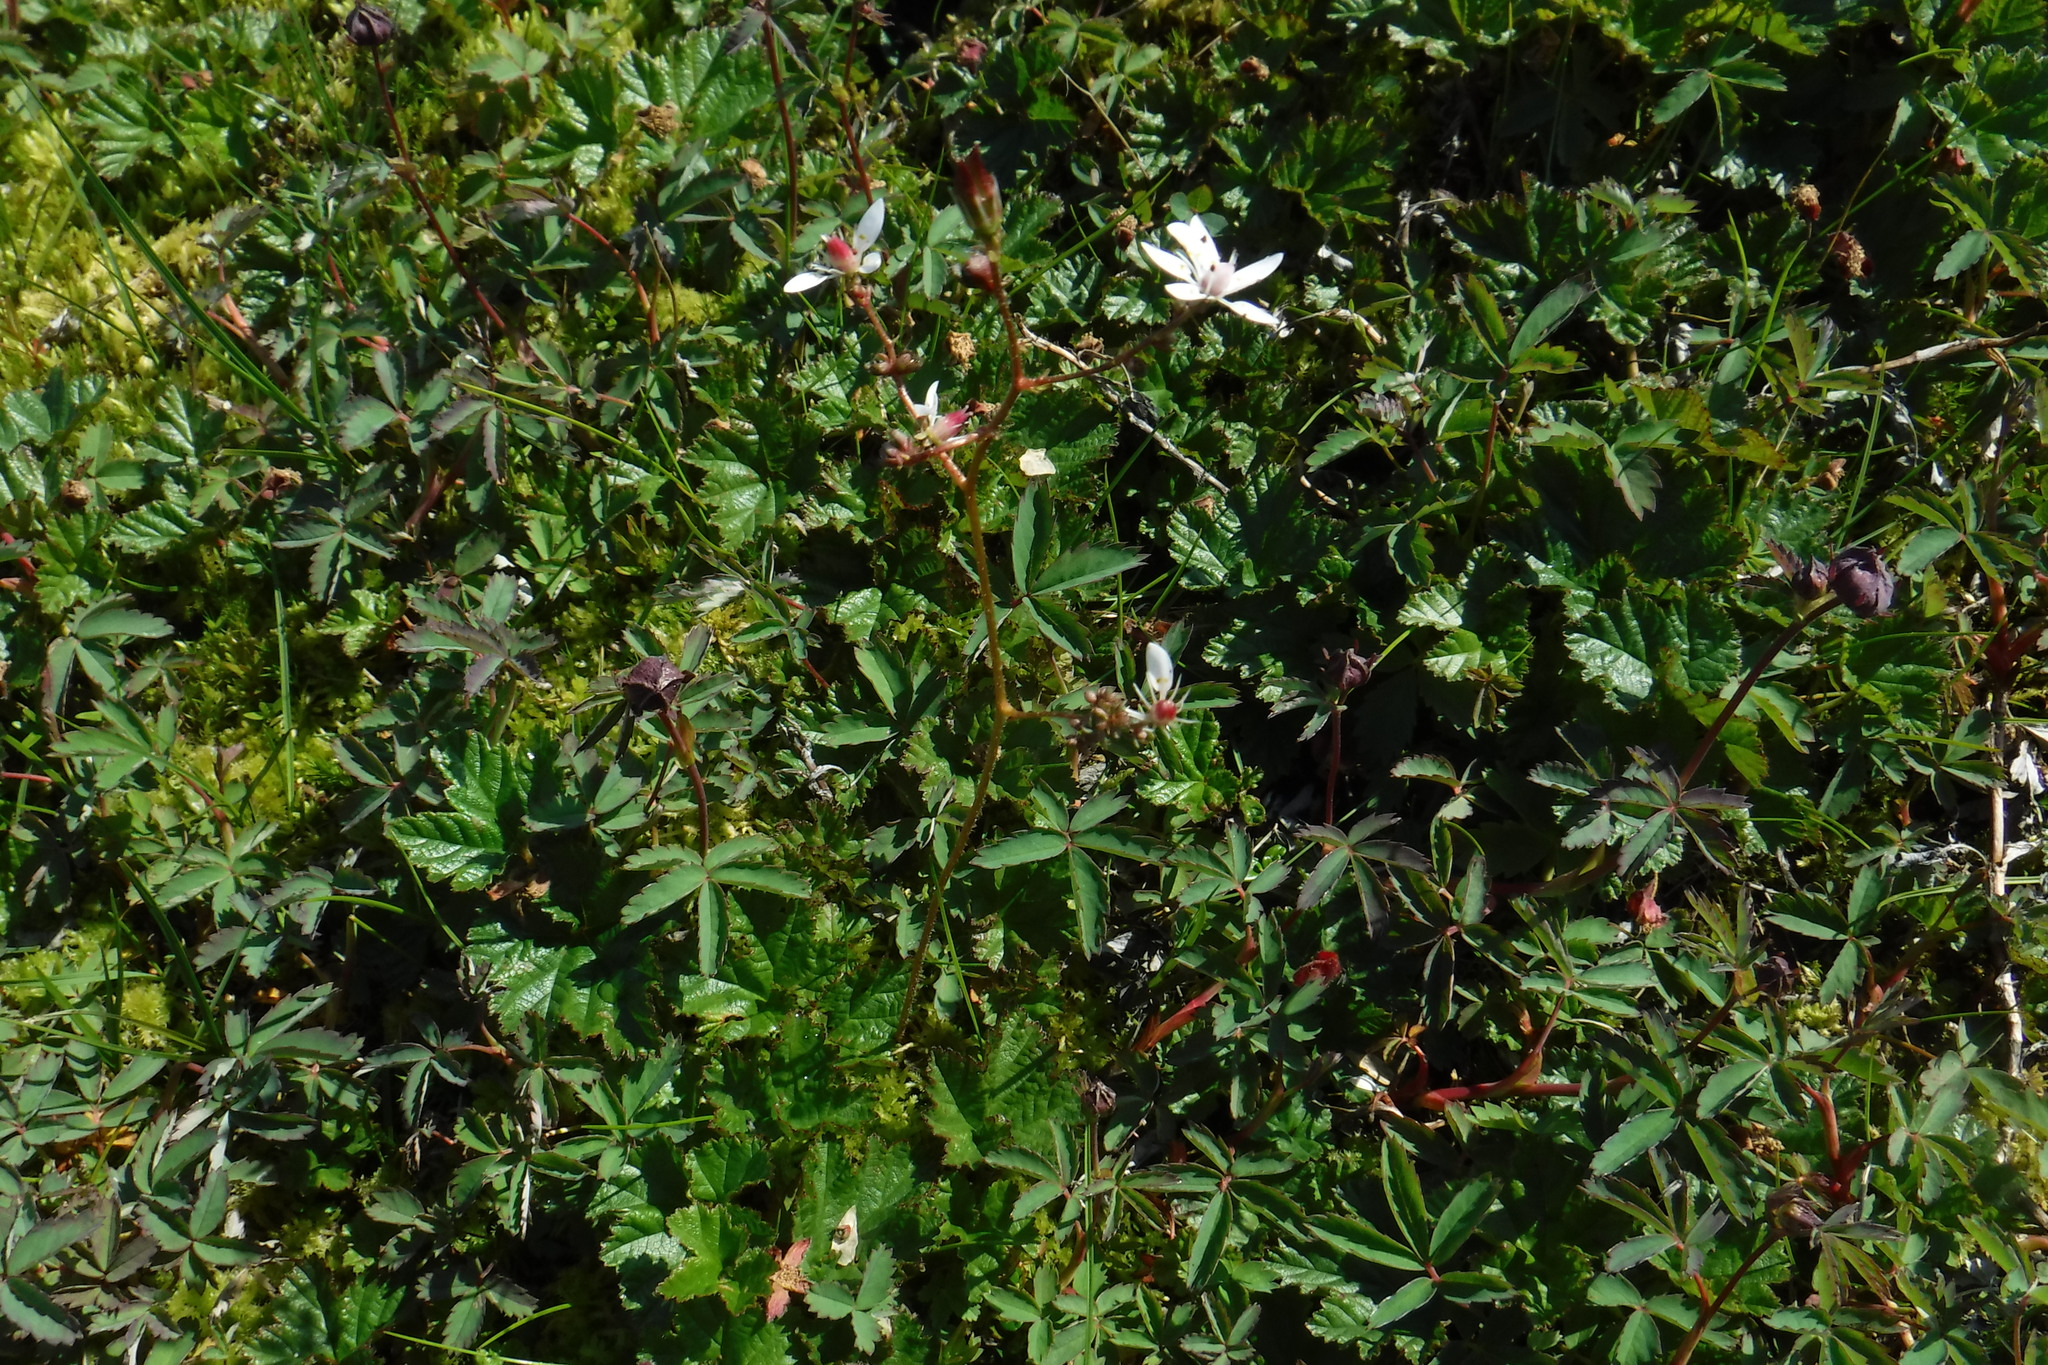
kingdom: Plantae
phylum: Tracheophyta
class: Magnoliopsida
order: Saxifragales
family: Saxifragaceae
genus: Micranthes
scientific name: Micranthes foliolosa
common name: Leafystem saxifrage
